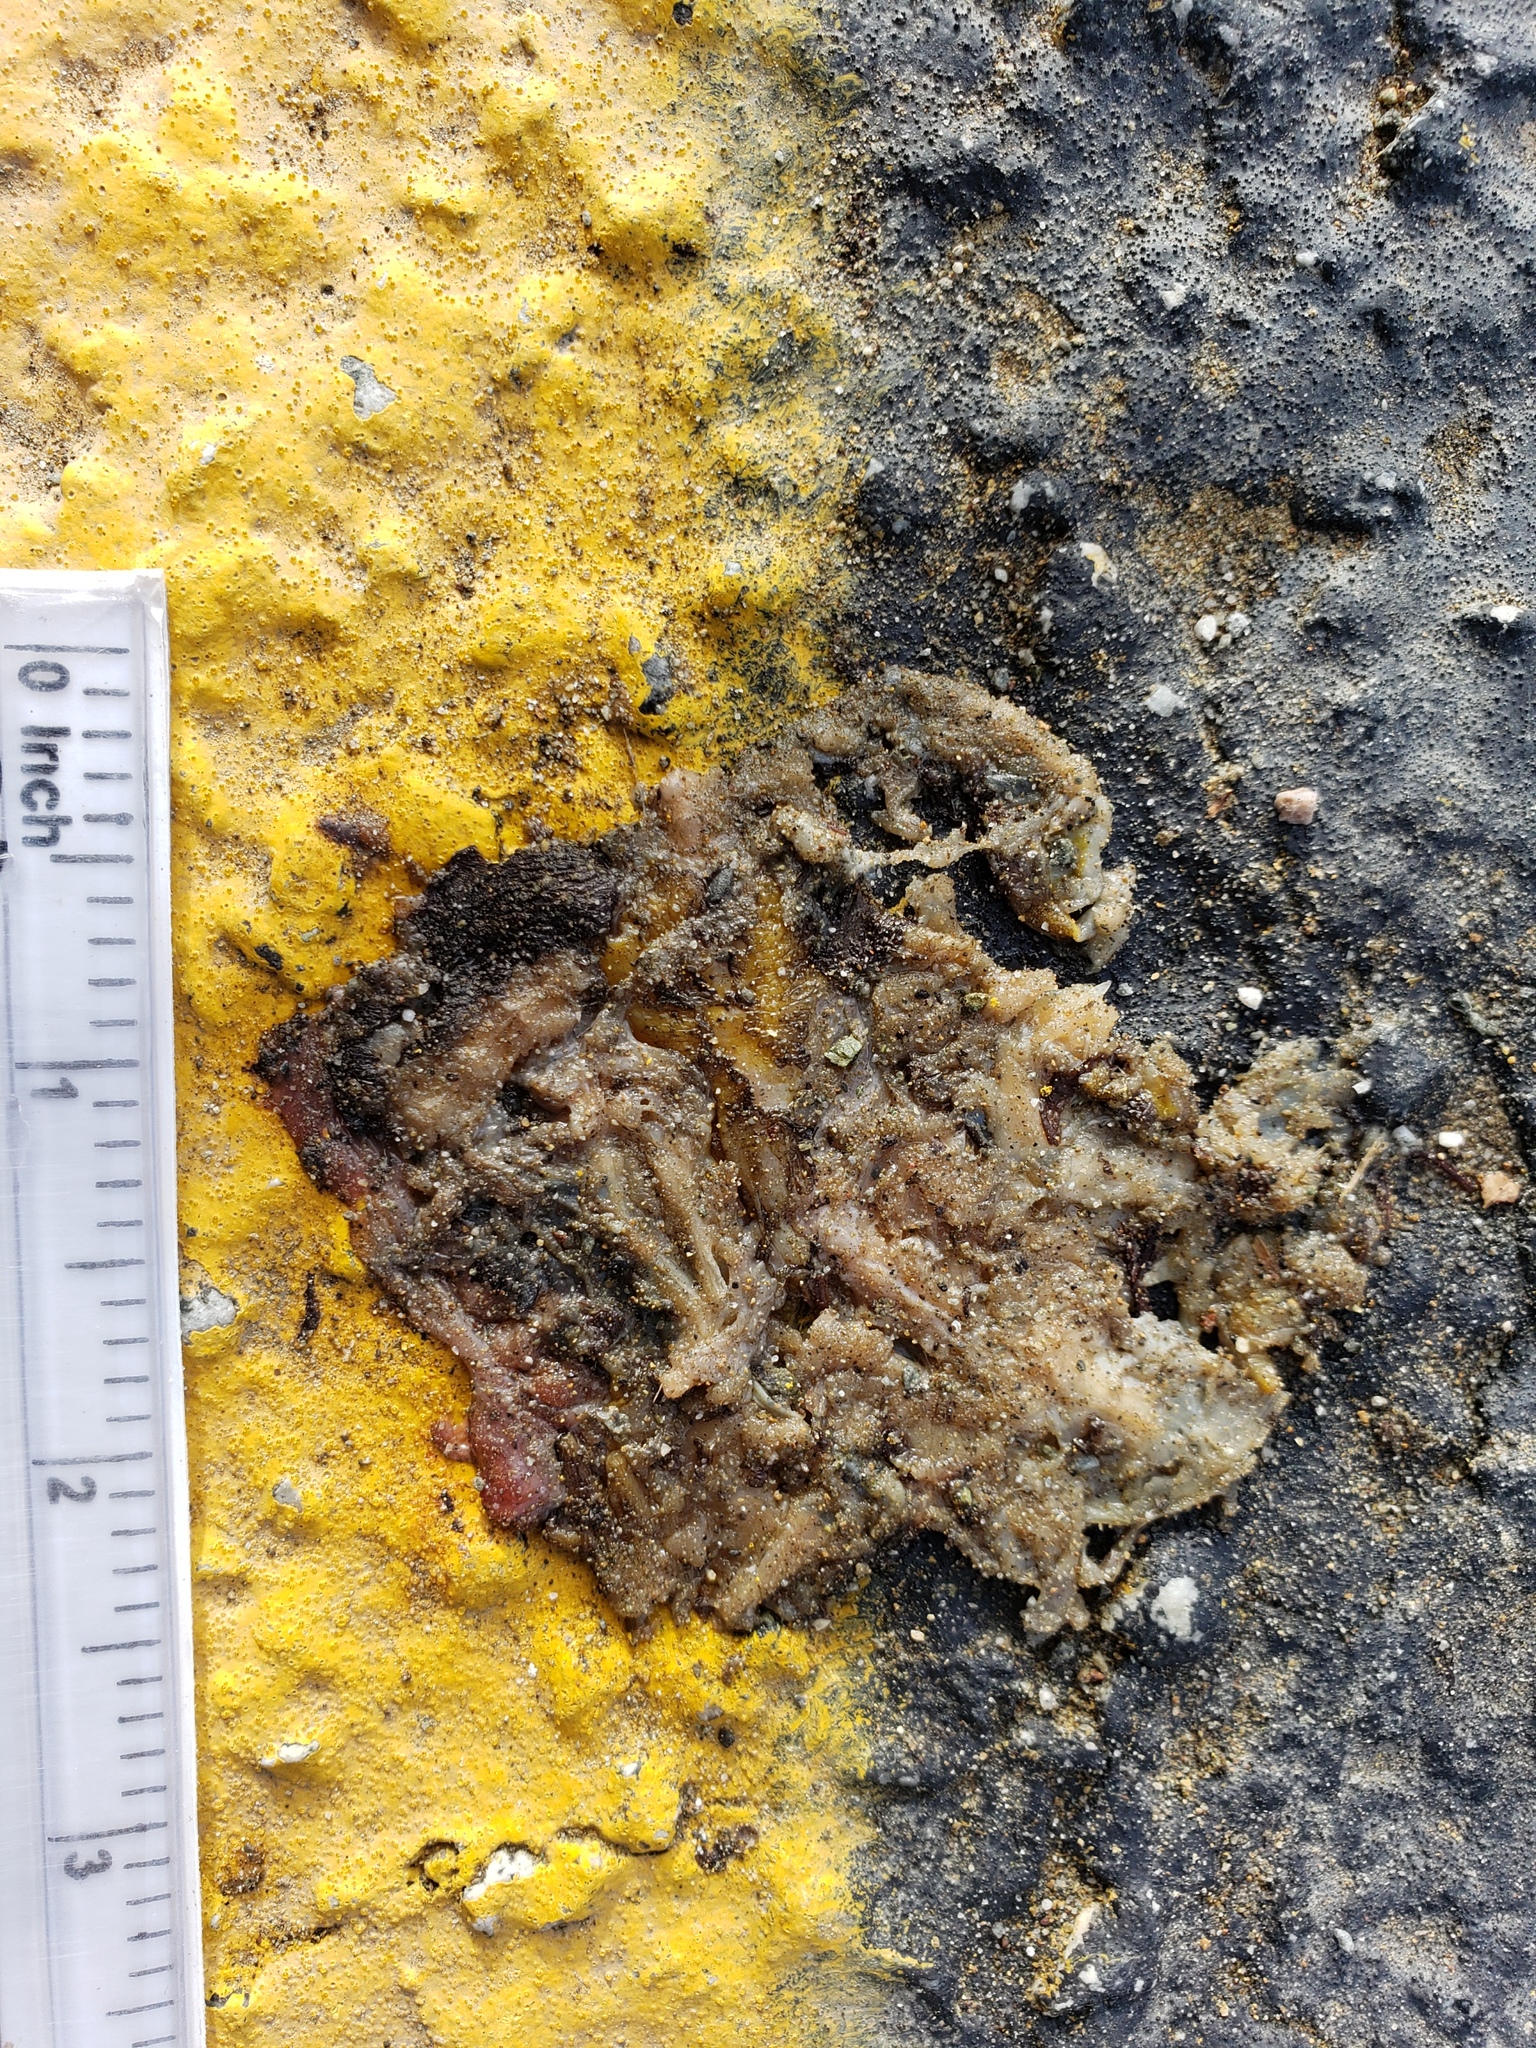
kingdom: Animalia
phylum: Chordata
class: Amphibia
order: Caudata
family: Salamandridae
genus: Taricha
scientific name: Taricha
